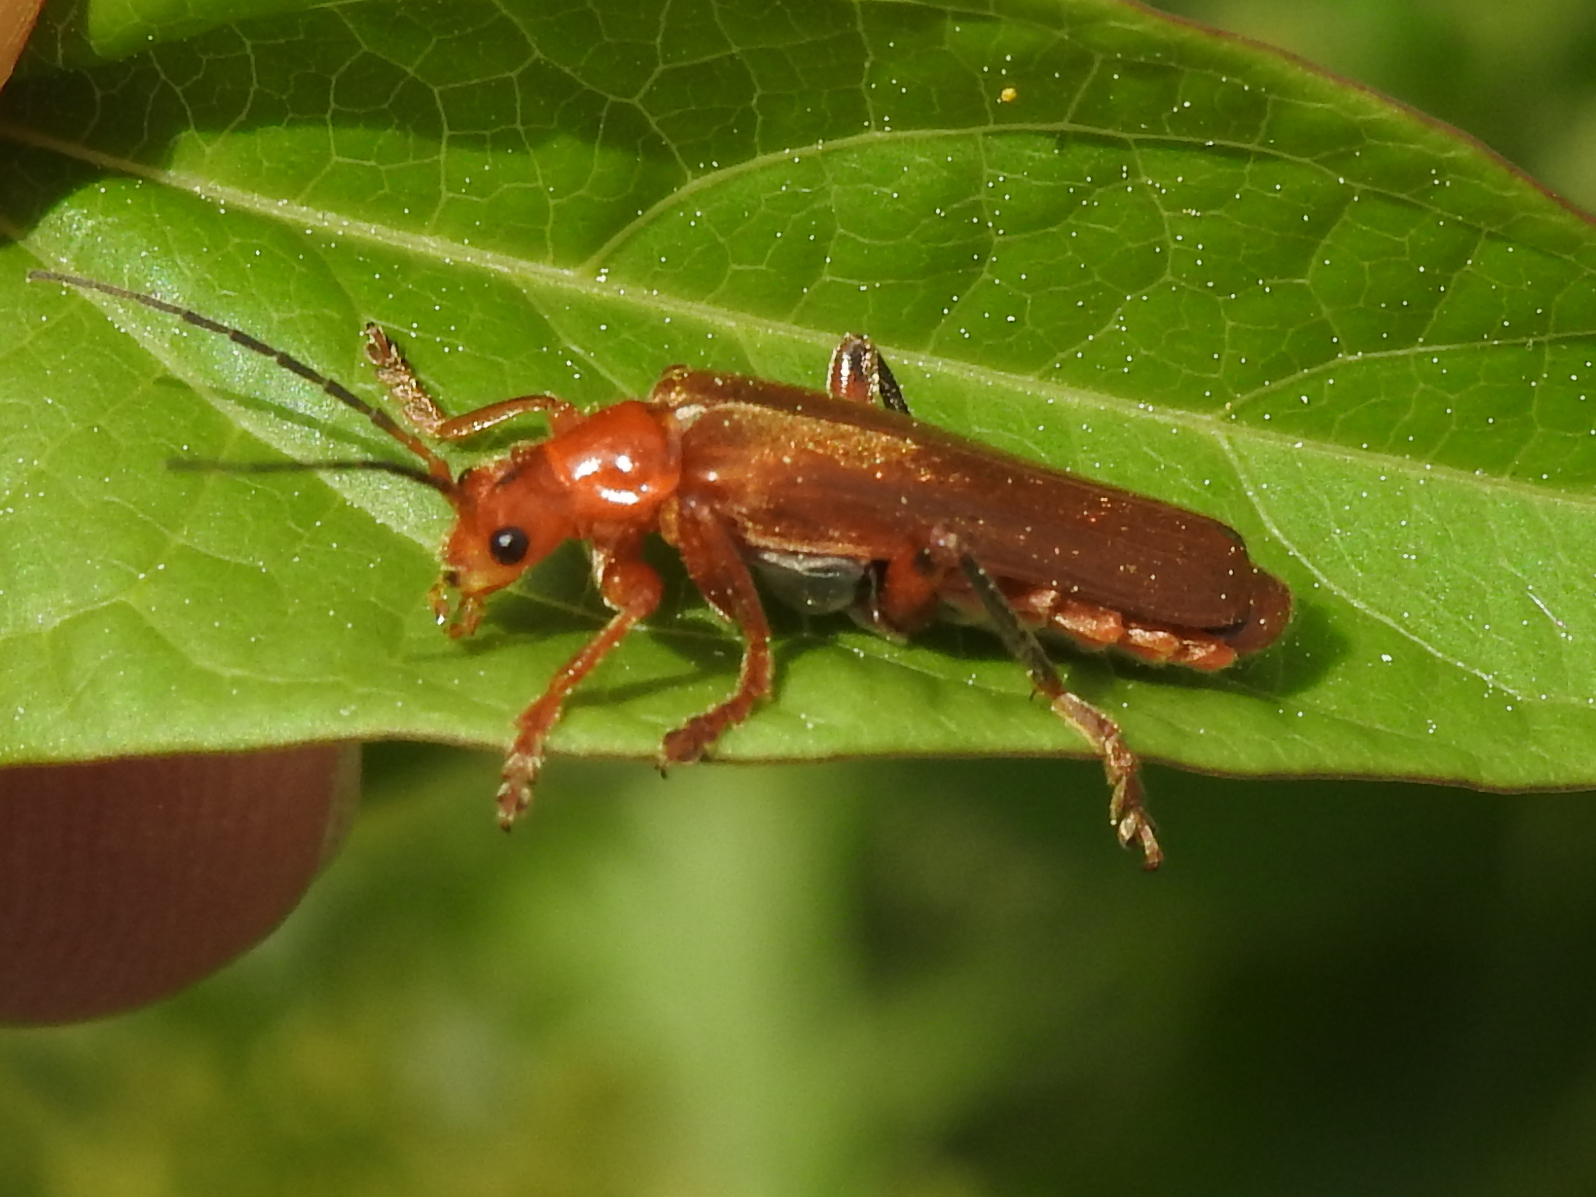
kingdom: Animalia
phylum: Arthropoda
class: Insecta
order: Coleoptera
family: Cantharidae
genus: Cantharis
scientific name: Cantharis livida
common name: Livid soldier beetle
